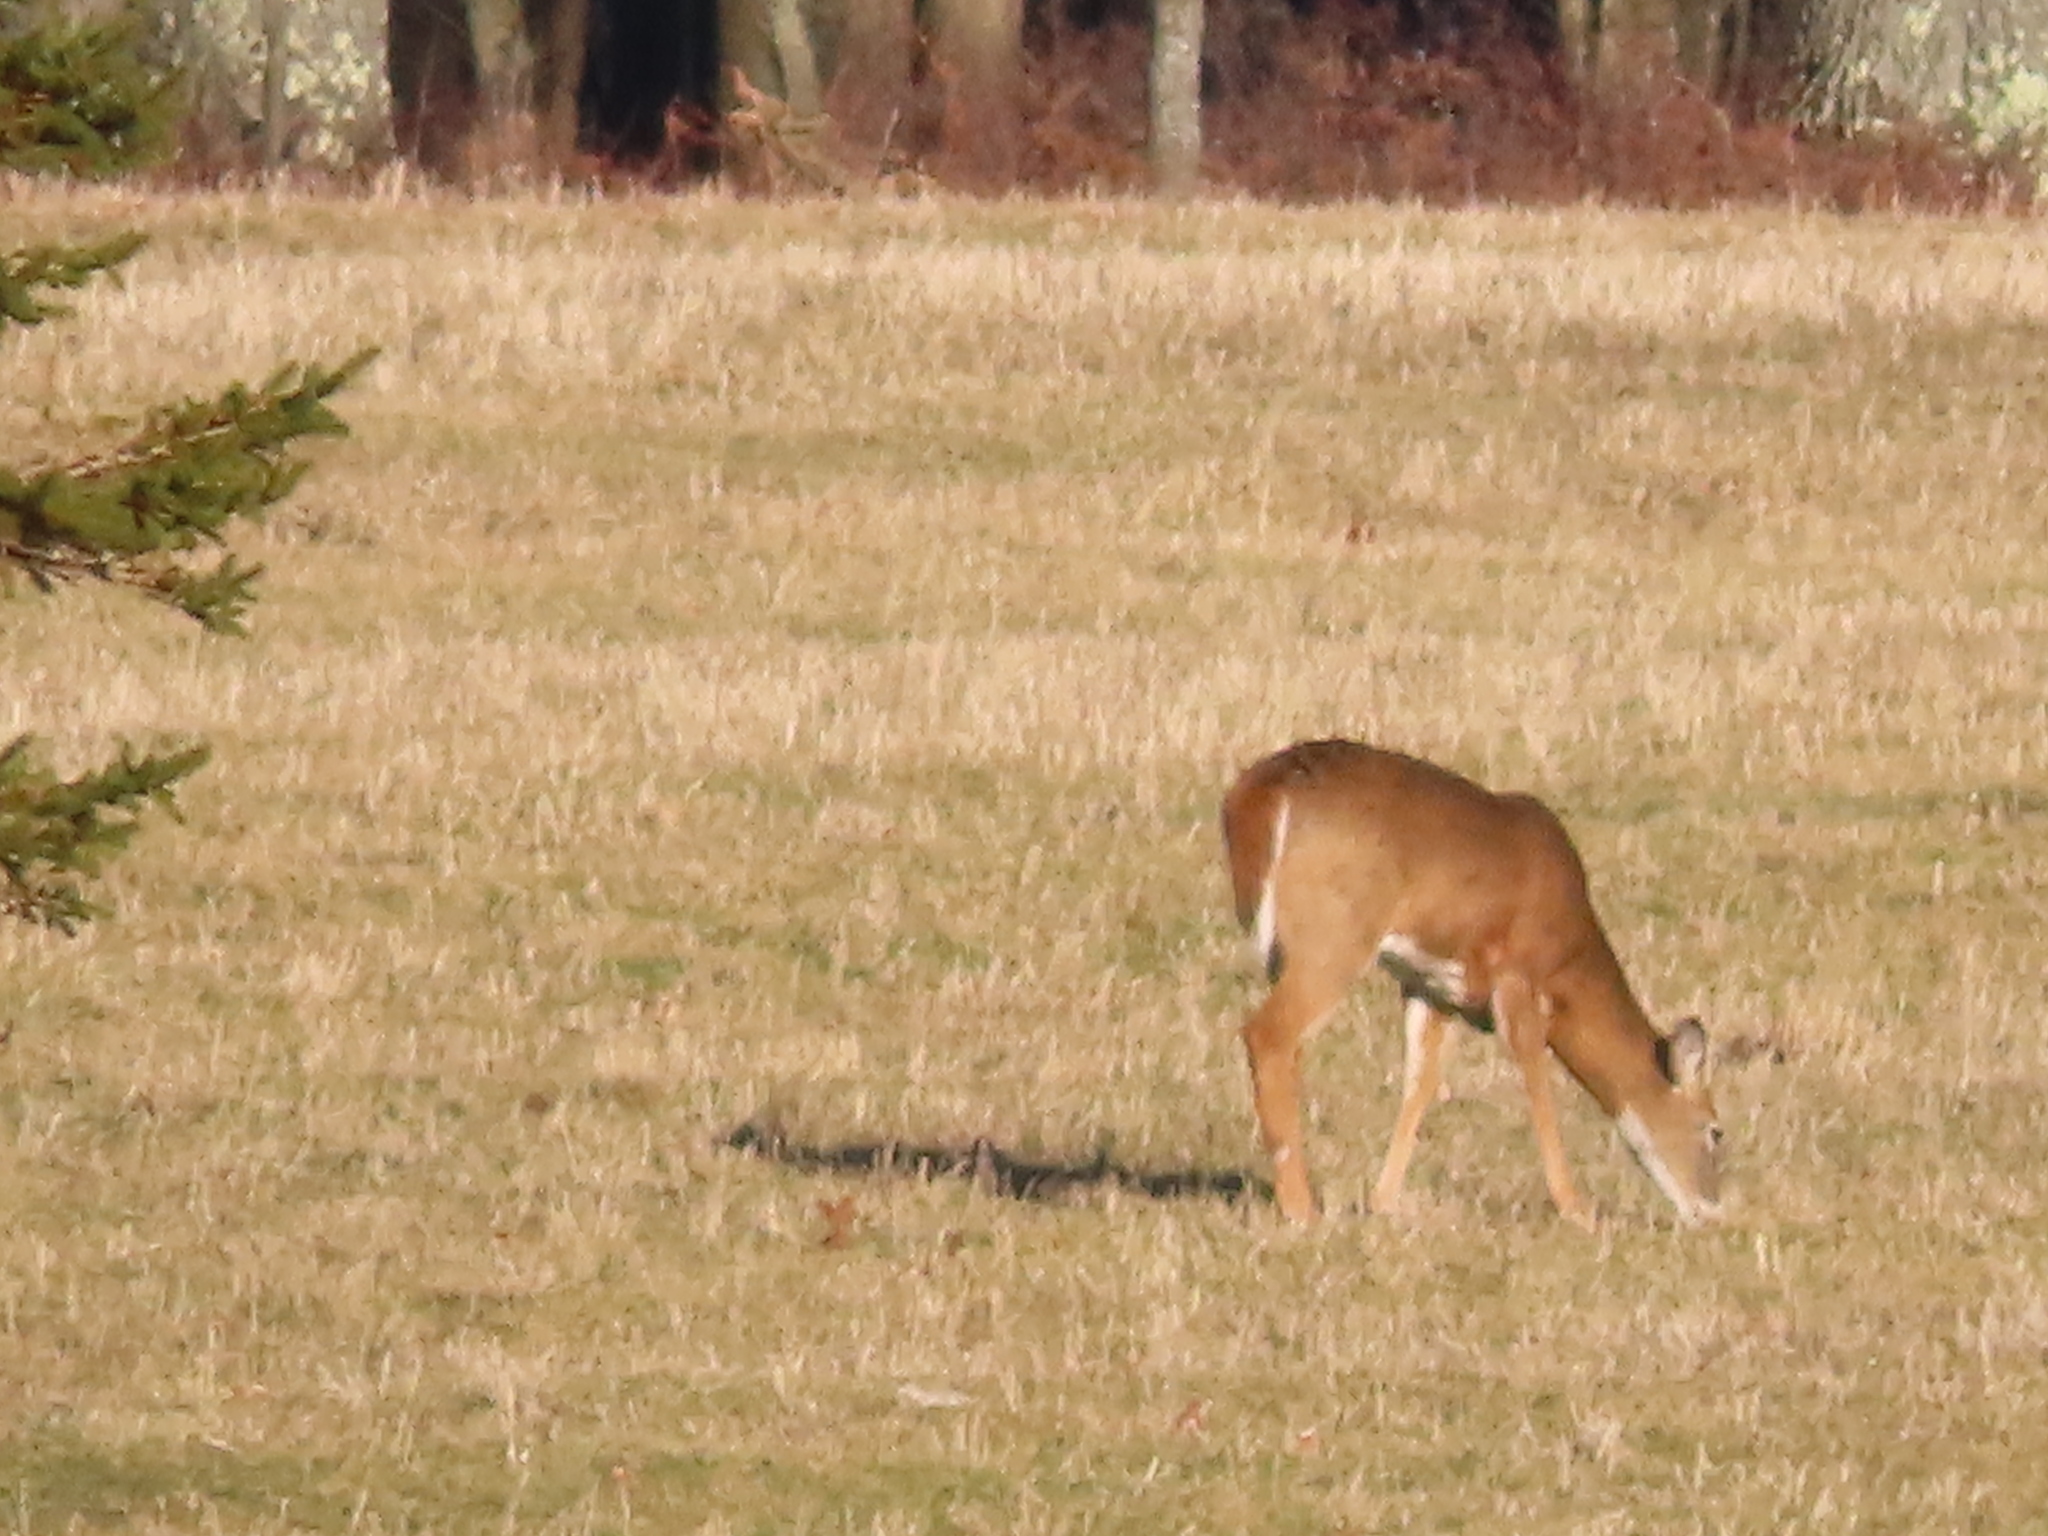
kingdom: Animalia
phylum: Chordata
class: Mammalia
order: Artiodactyla
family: Cervidae
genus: Odocoileus
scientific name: Odocoileus virginianus
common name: White-tailed deer
